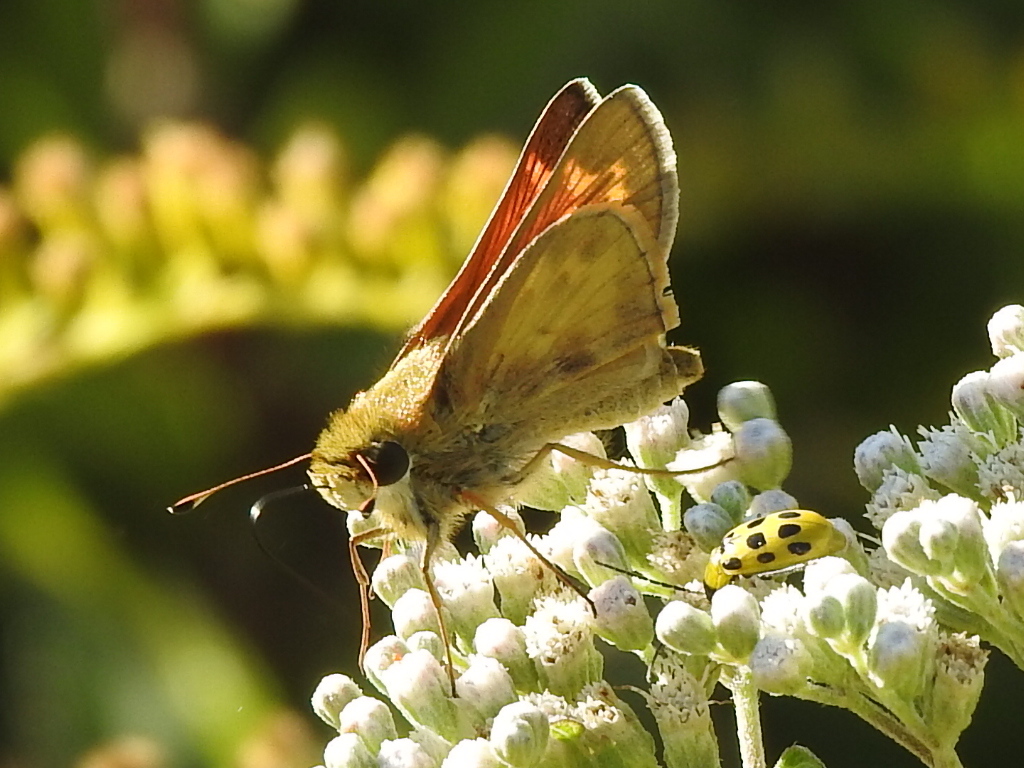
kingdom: Animalia
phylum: Arthropoda
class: Insecta
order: Lepidoptera
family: Hesperiidae
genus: Atalopedes
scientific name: Atalopedes
